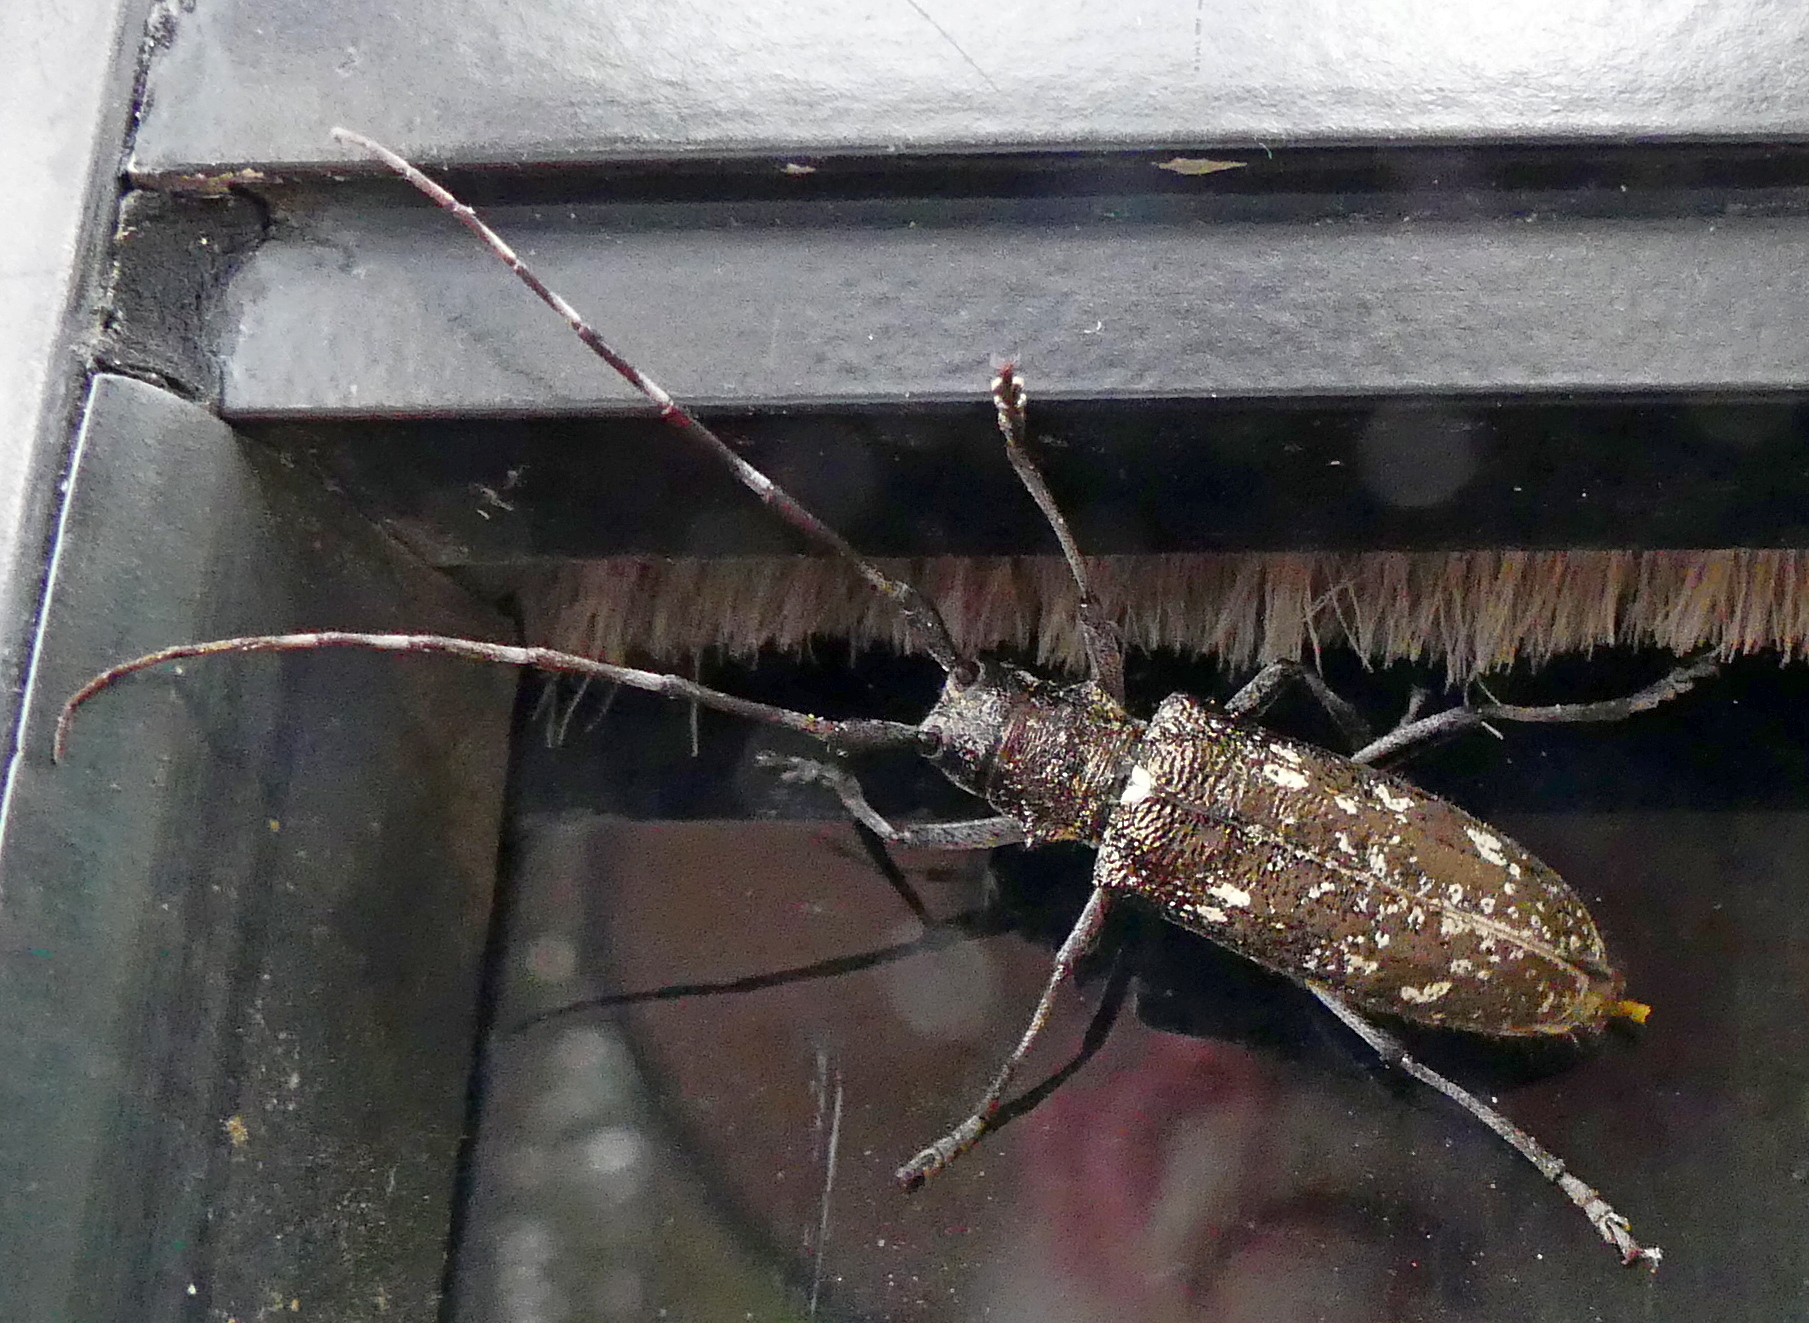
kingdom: Animalia
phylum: Arthropoda
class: Insecta
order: Coleoptera
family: Cerambycidae
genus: Monochamus
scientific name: Monochamus scutellatus
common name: White-spotted sawyer beetle
